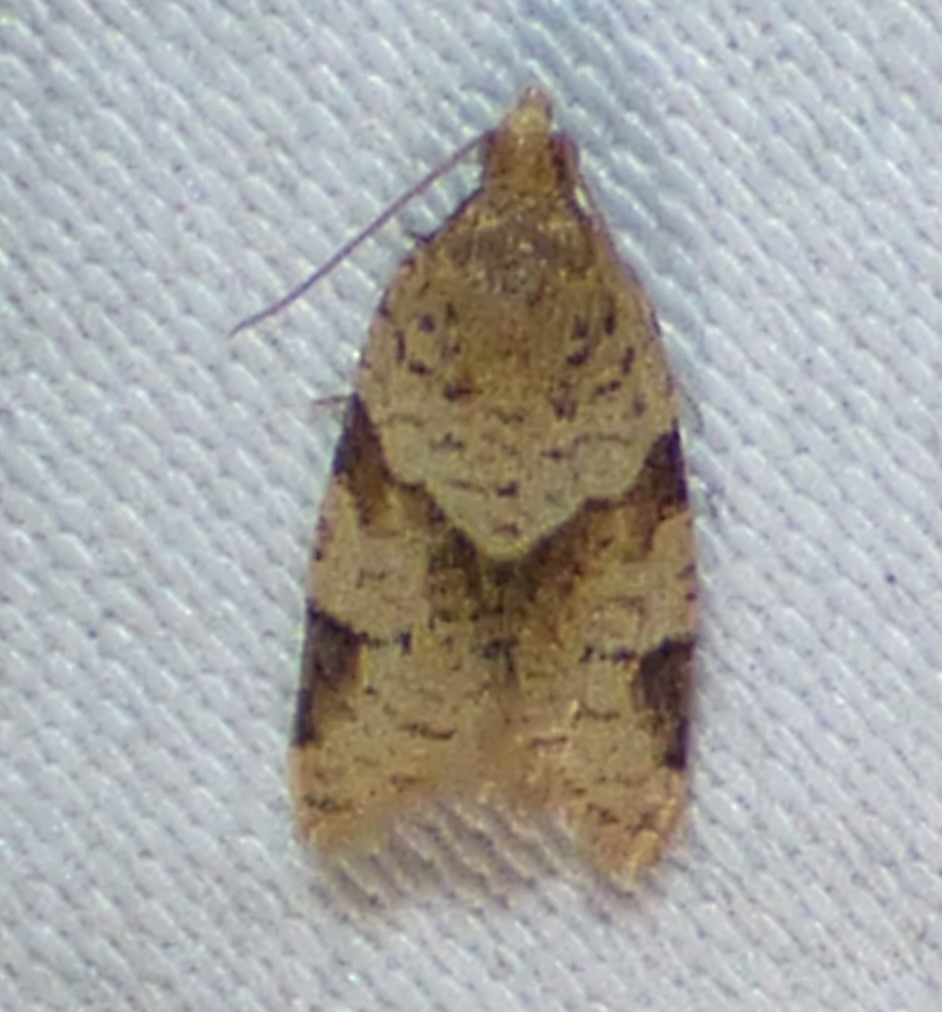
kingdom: Animalia
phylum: Arthropoda
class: Insecta
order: Lepidoptera
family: Tortricidae
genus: Clepsis
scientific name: Clepsis peritana
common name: Garden tortrix
